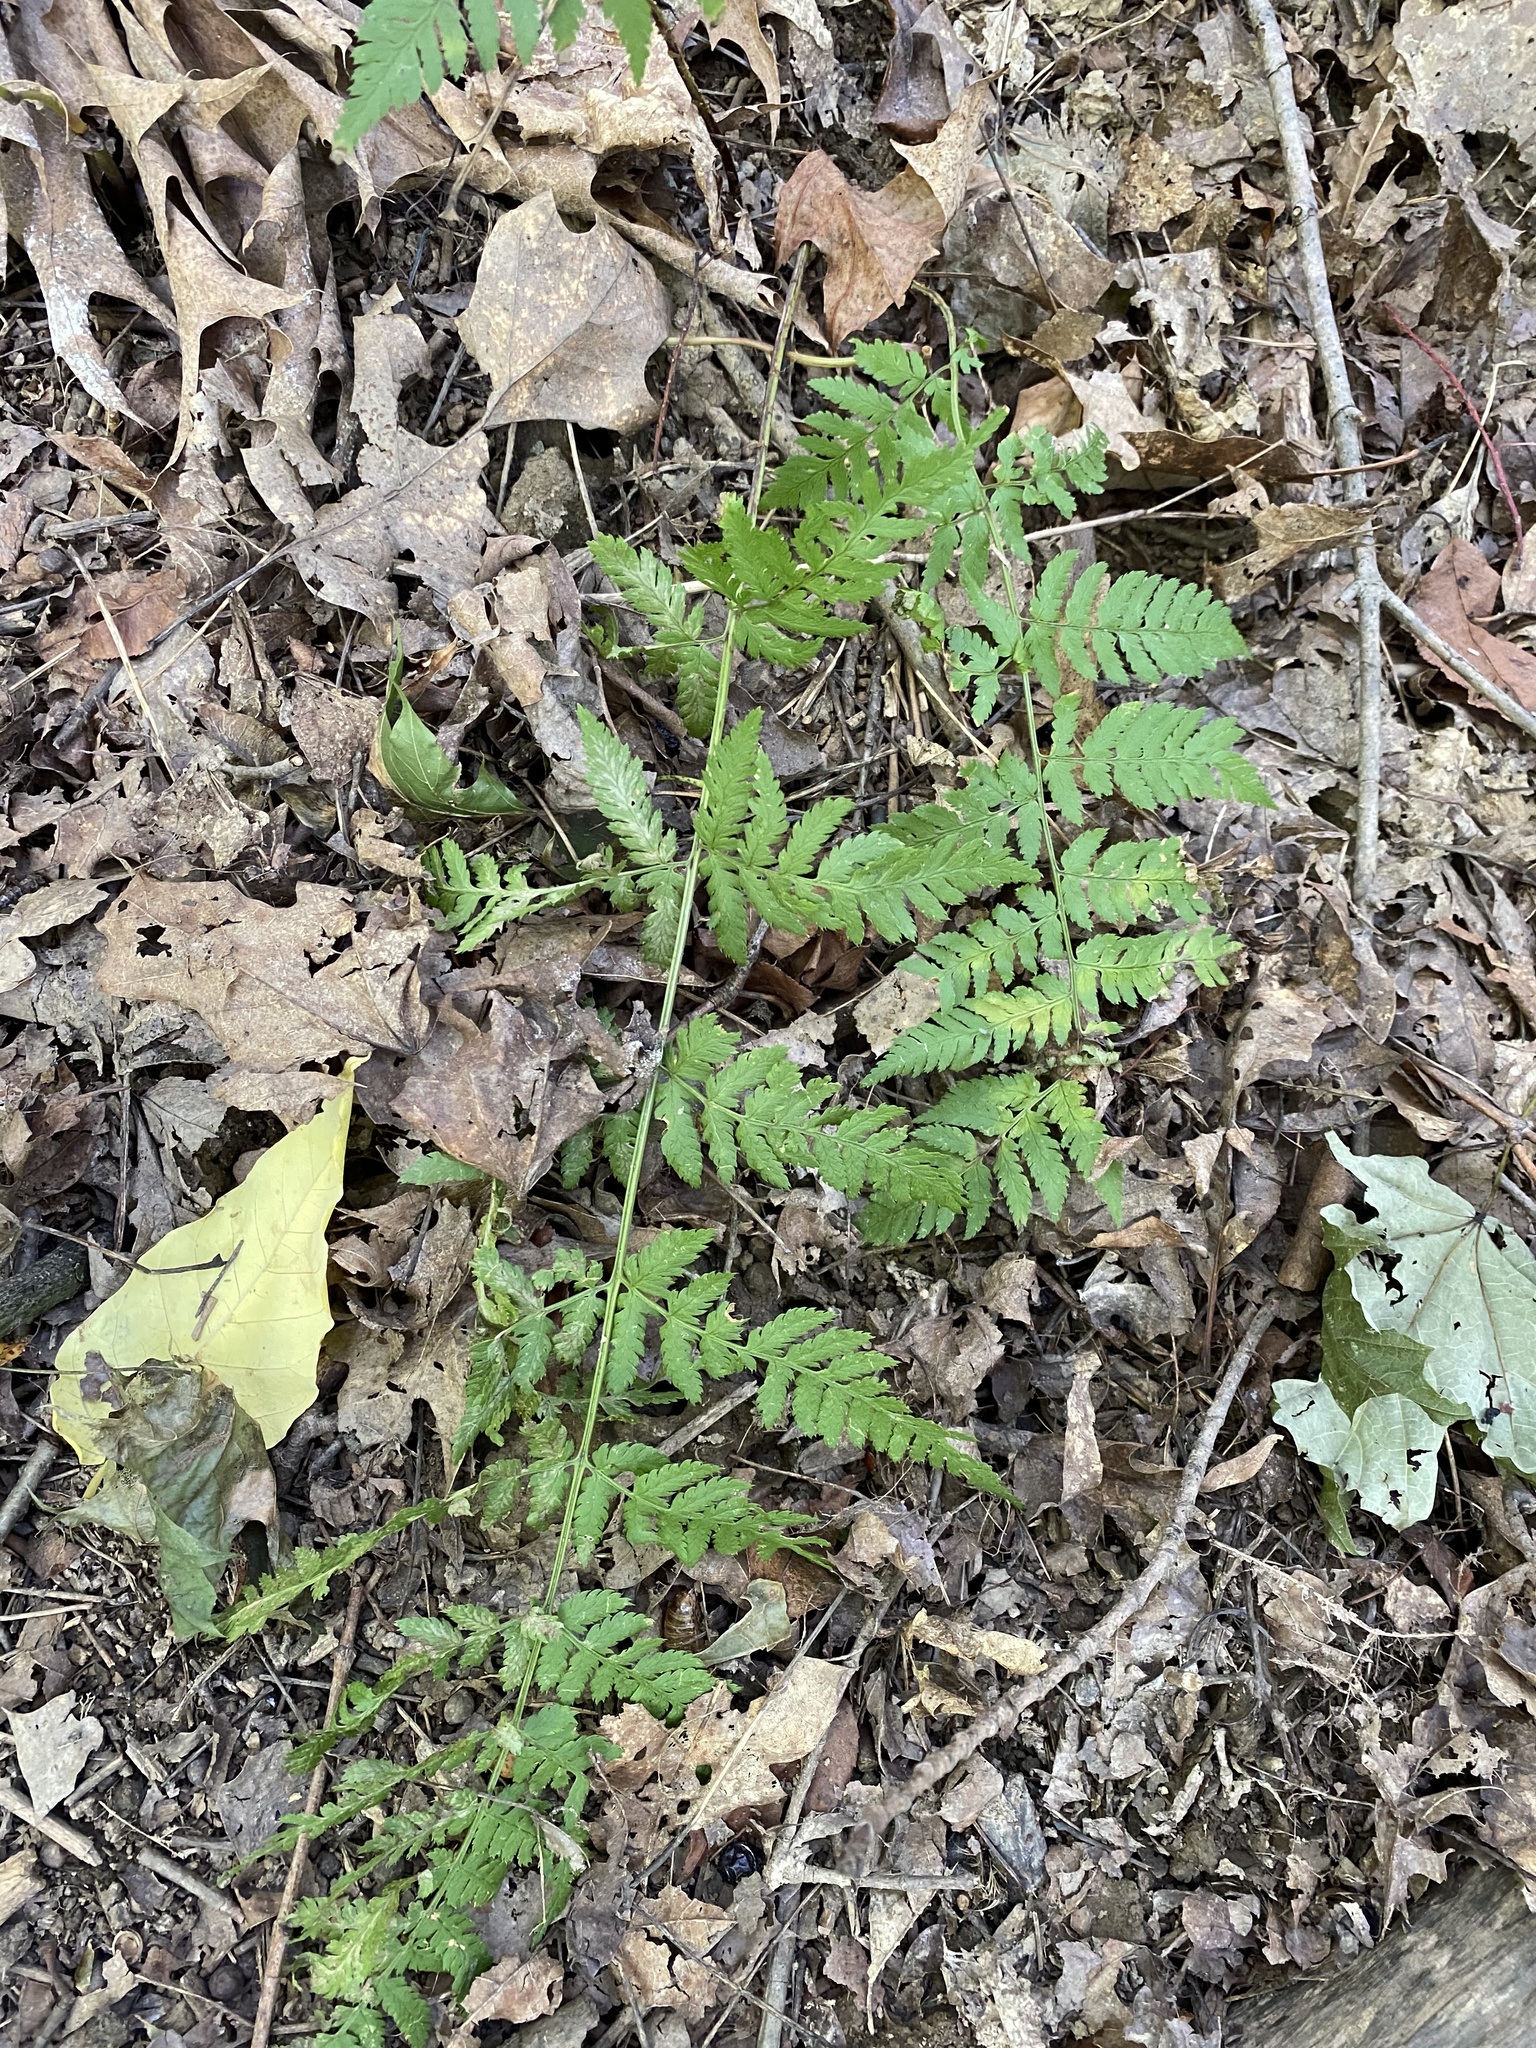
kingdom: Plantae
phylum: Tracheophyta
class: Polypodiopsida
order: Polypodiales
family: Dryopteridaceae
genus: Dryopteris
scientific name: Dryopteris carthusiana
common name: Narrow buckler-fern
